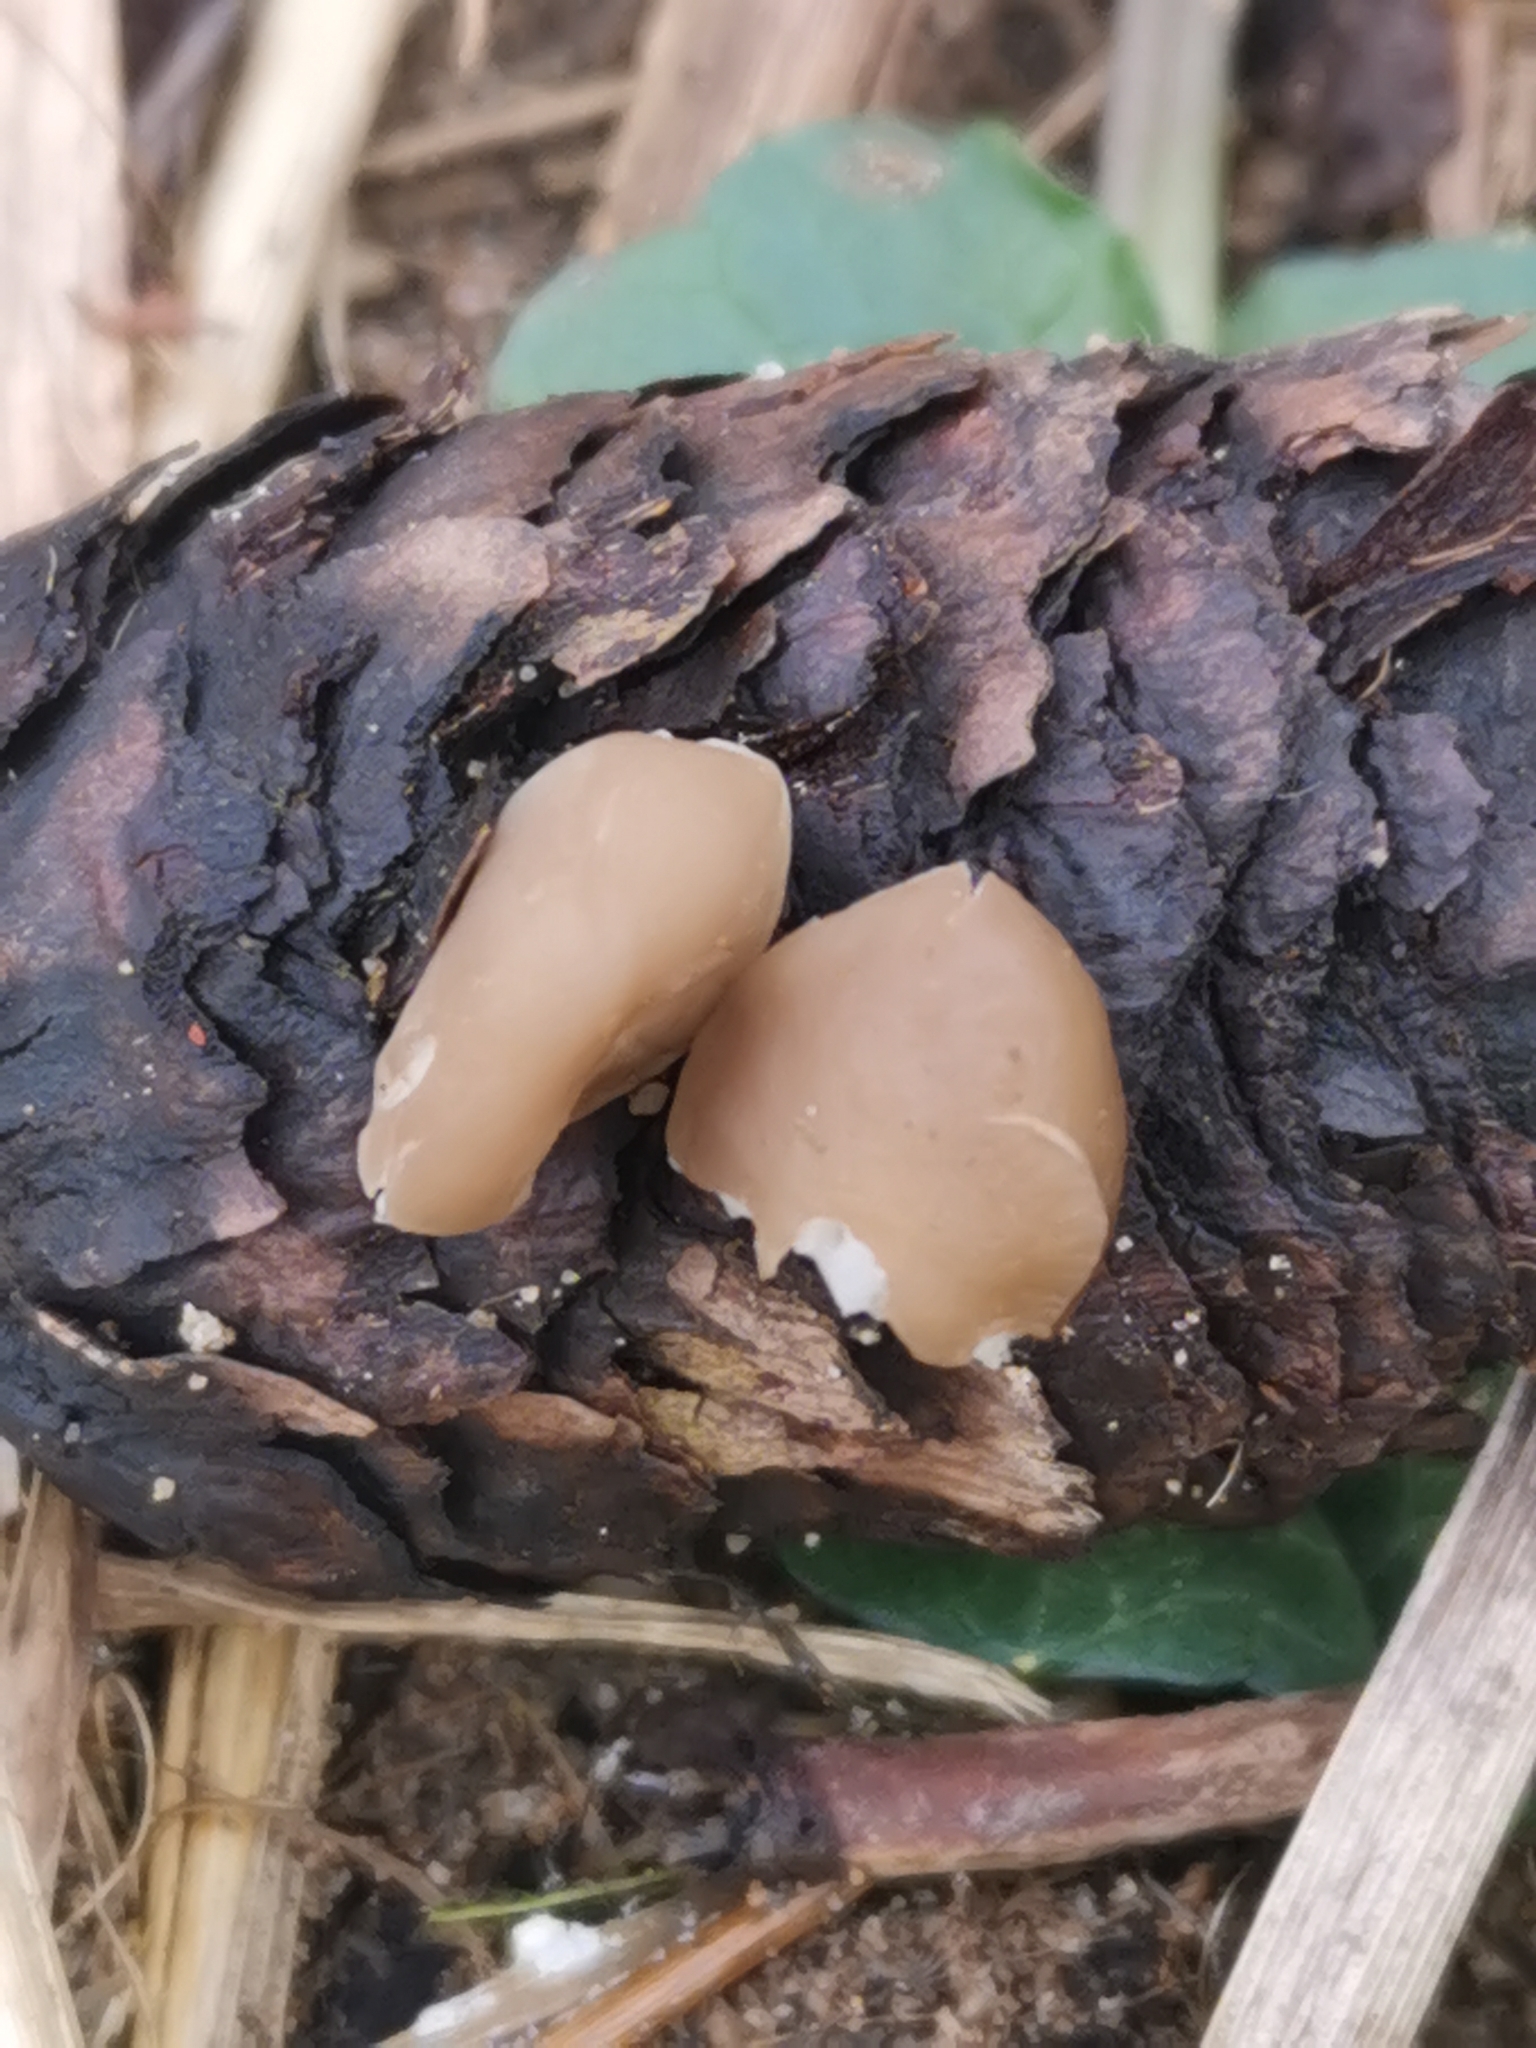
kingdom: Fungi
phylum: Basidiomycota
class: Agaricomycetes
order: Agaricales
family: Physalacriaceae
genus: Strobilurus
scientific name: Strobilurus esculentus
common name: Sprucecone cap
